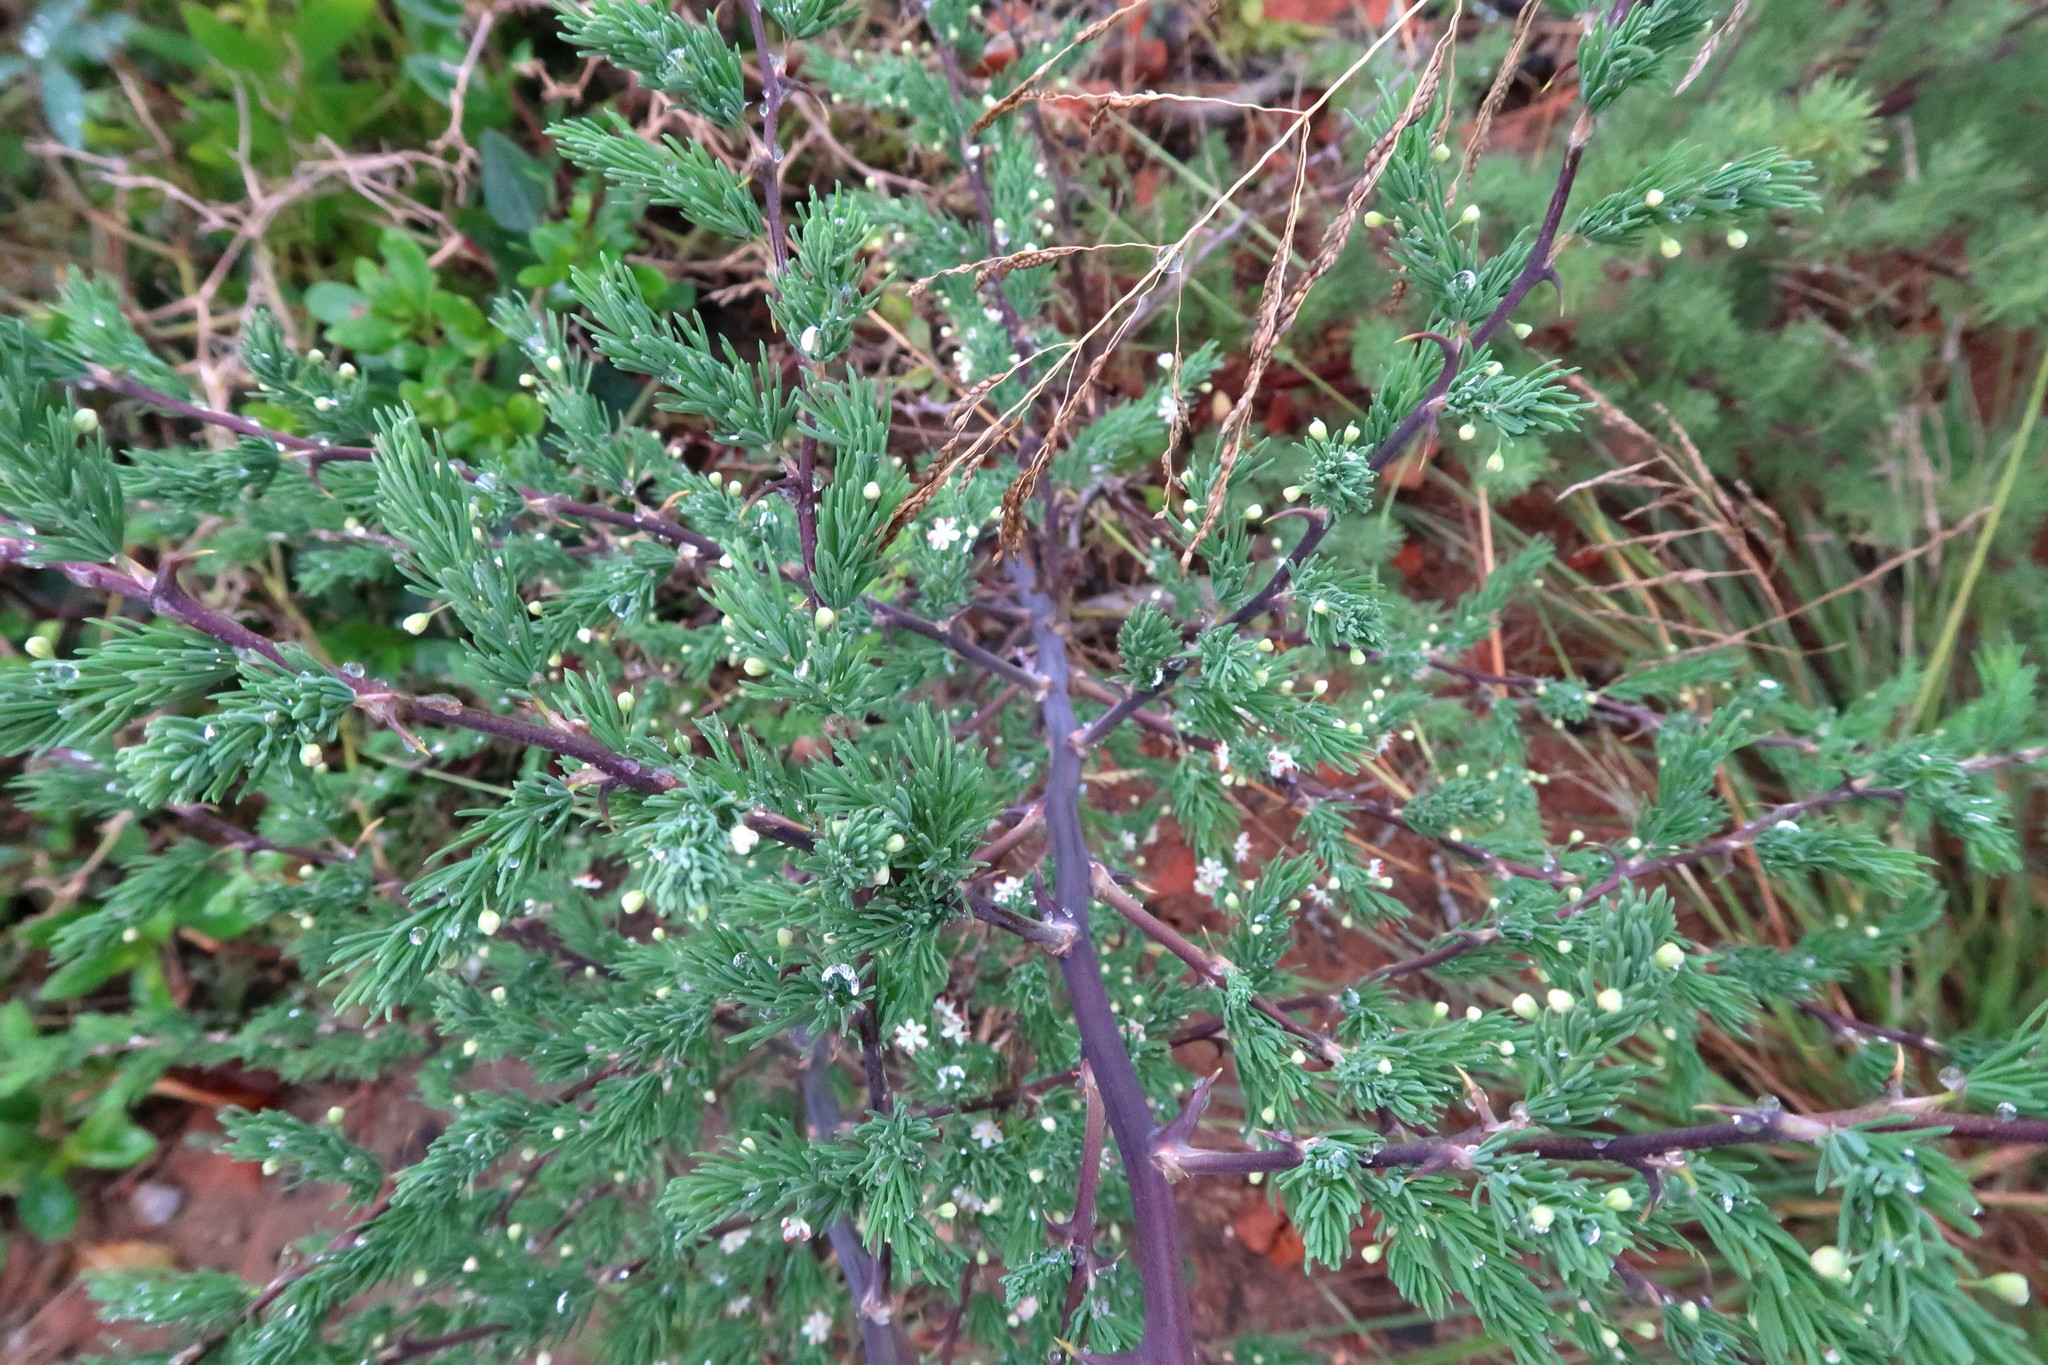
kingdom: Plantae
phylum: Tracheophyta
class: Liliopsida
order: Asparagales
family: Asparagaceae
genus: Asparagus
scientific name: Asparagus rubicundus
